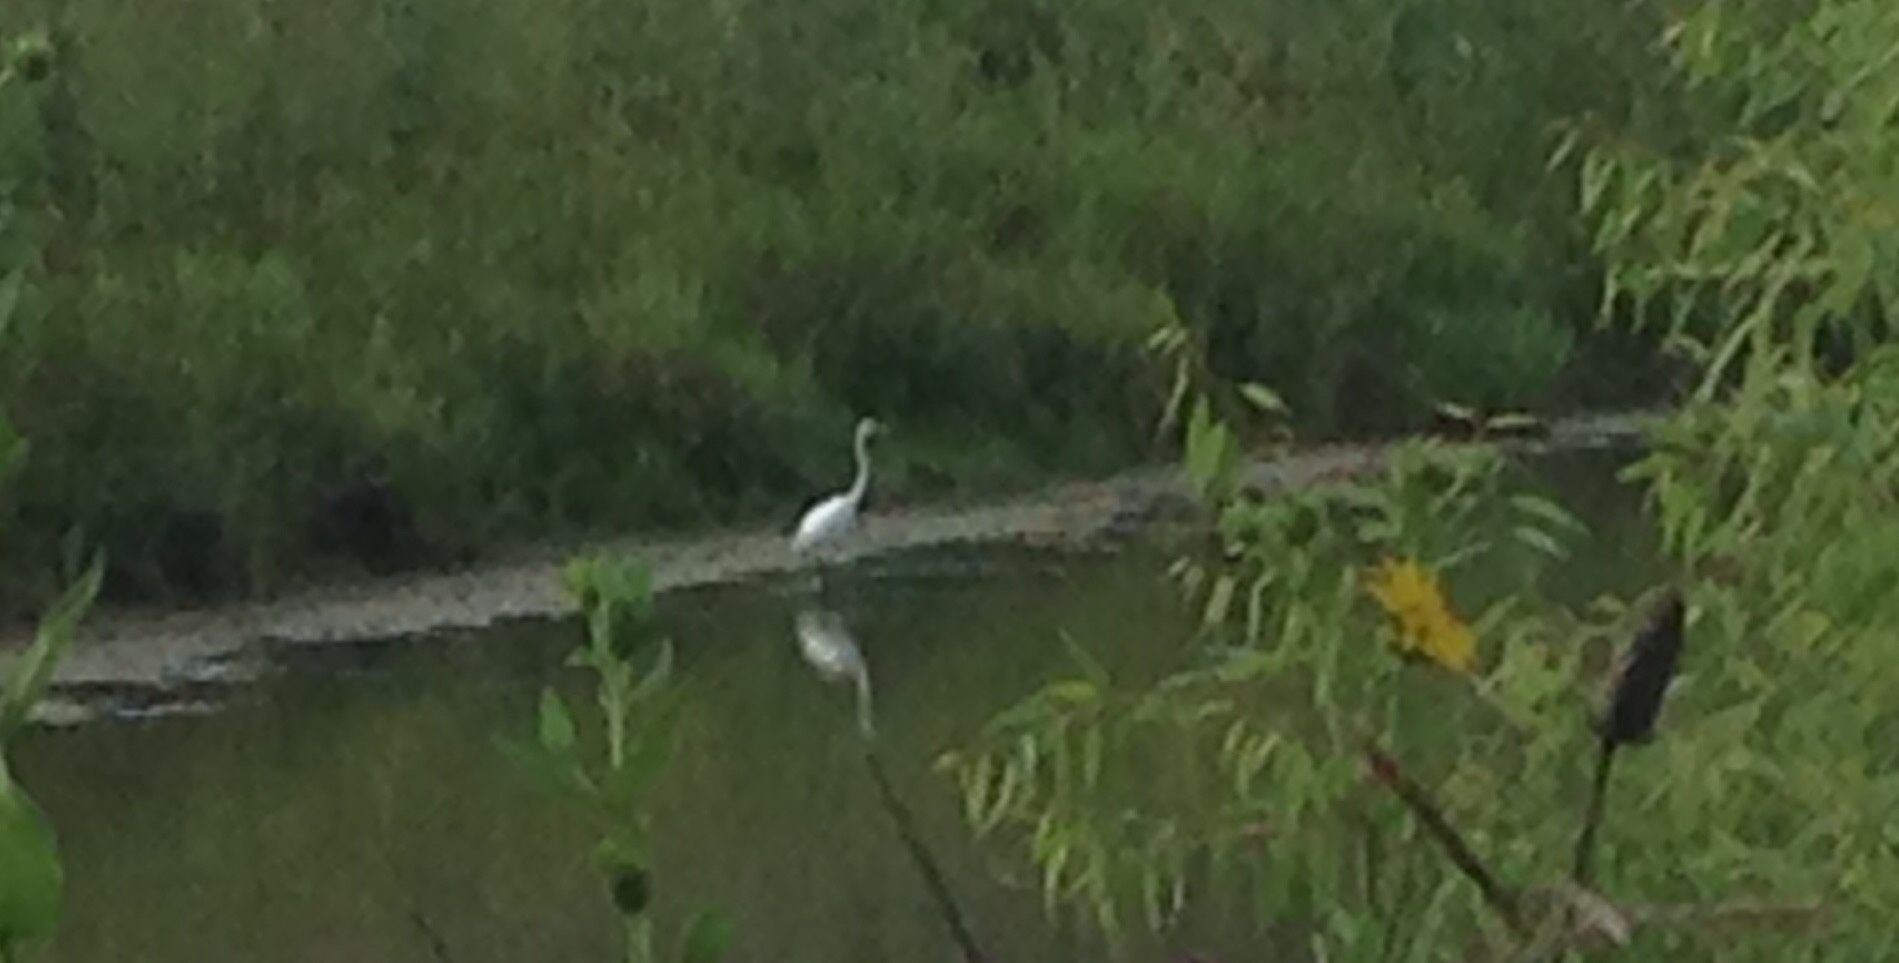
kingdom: Animalia
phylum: Chordata
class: Aves
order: Pelecaniformes
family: Ardeidae
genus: Ardea
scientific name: Ardea alba
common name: Great egret
